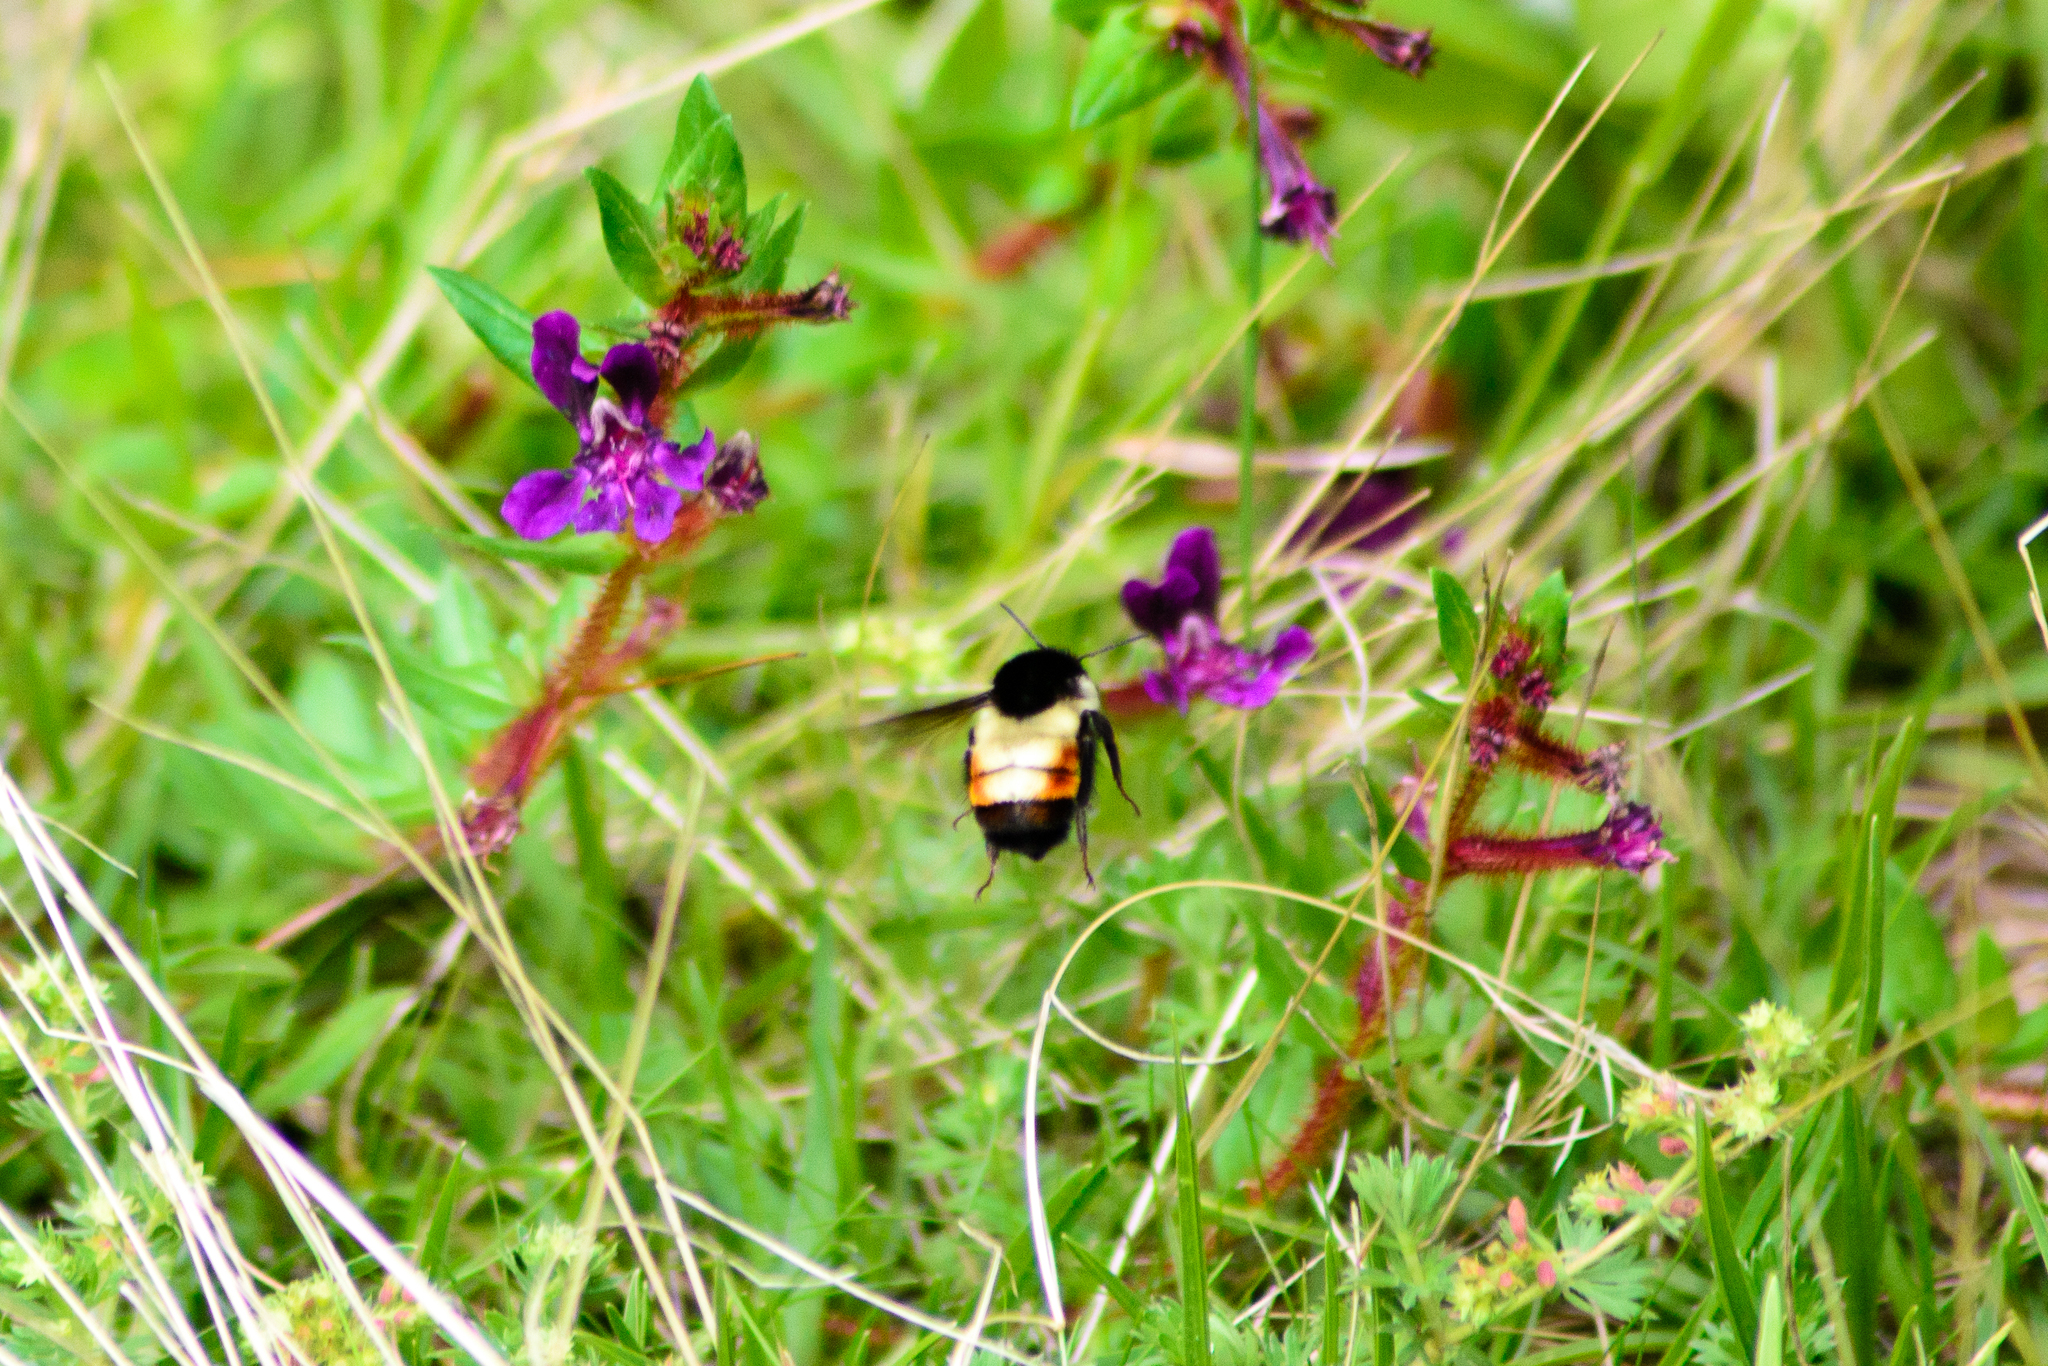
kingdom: Animalia
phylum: Arthropoda
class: Insecta
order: Hymenoptera
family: Apidae
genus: Bombus
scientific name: Bombus ephippiatus
